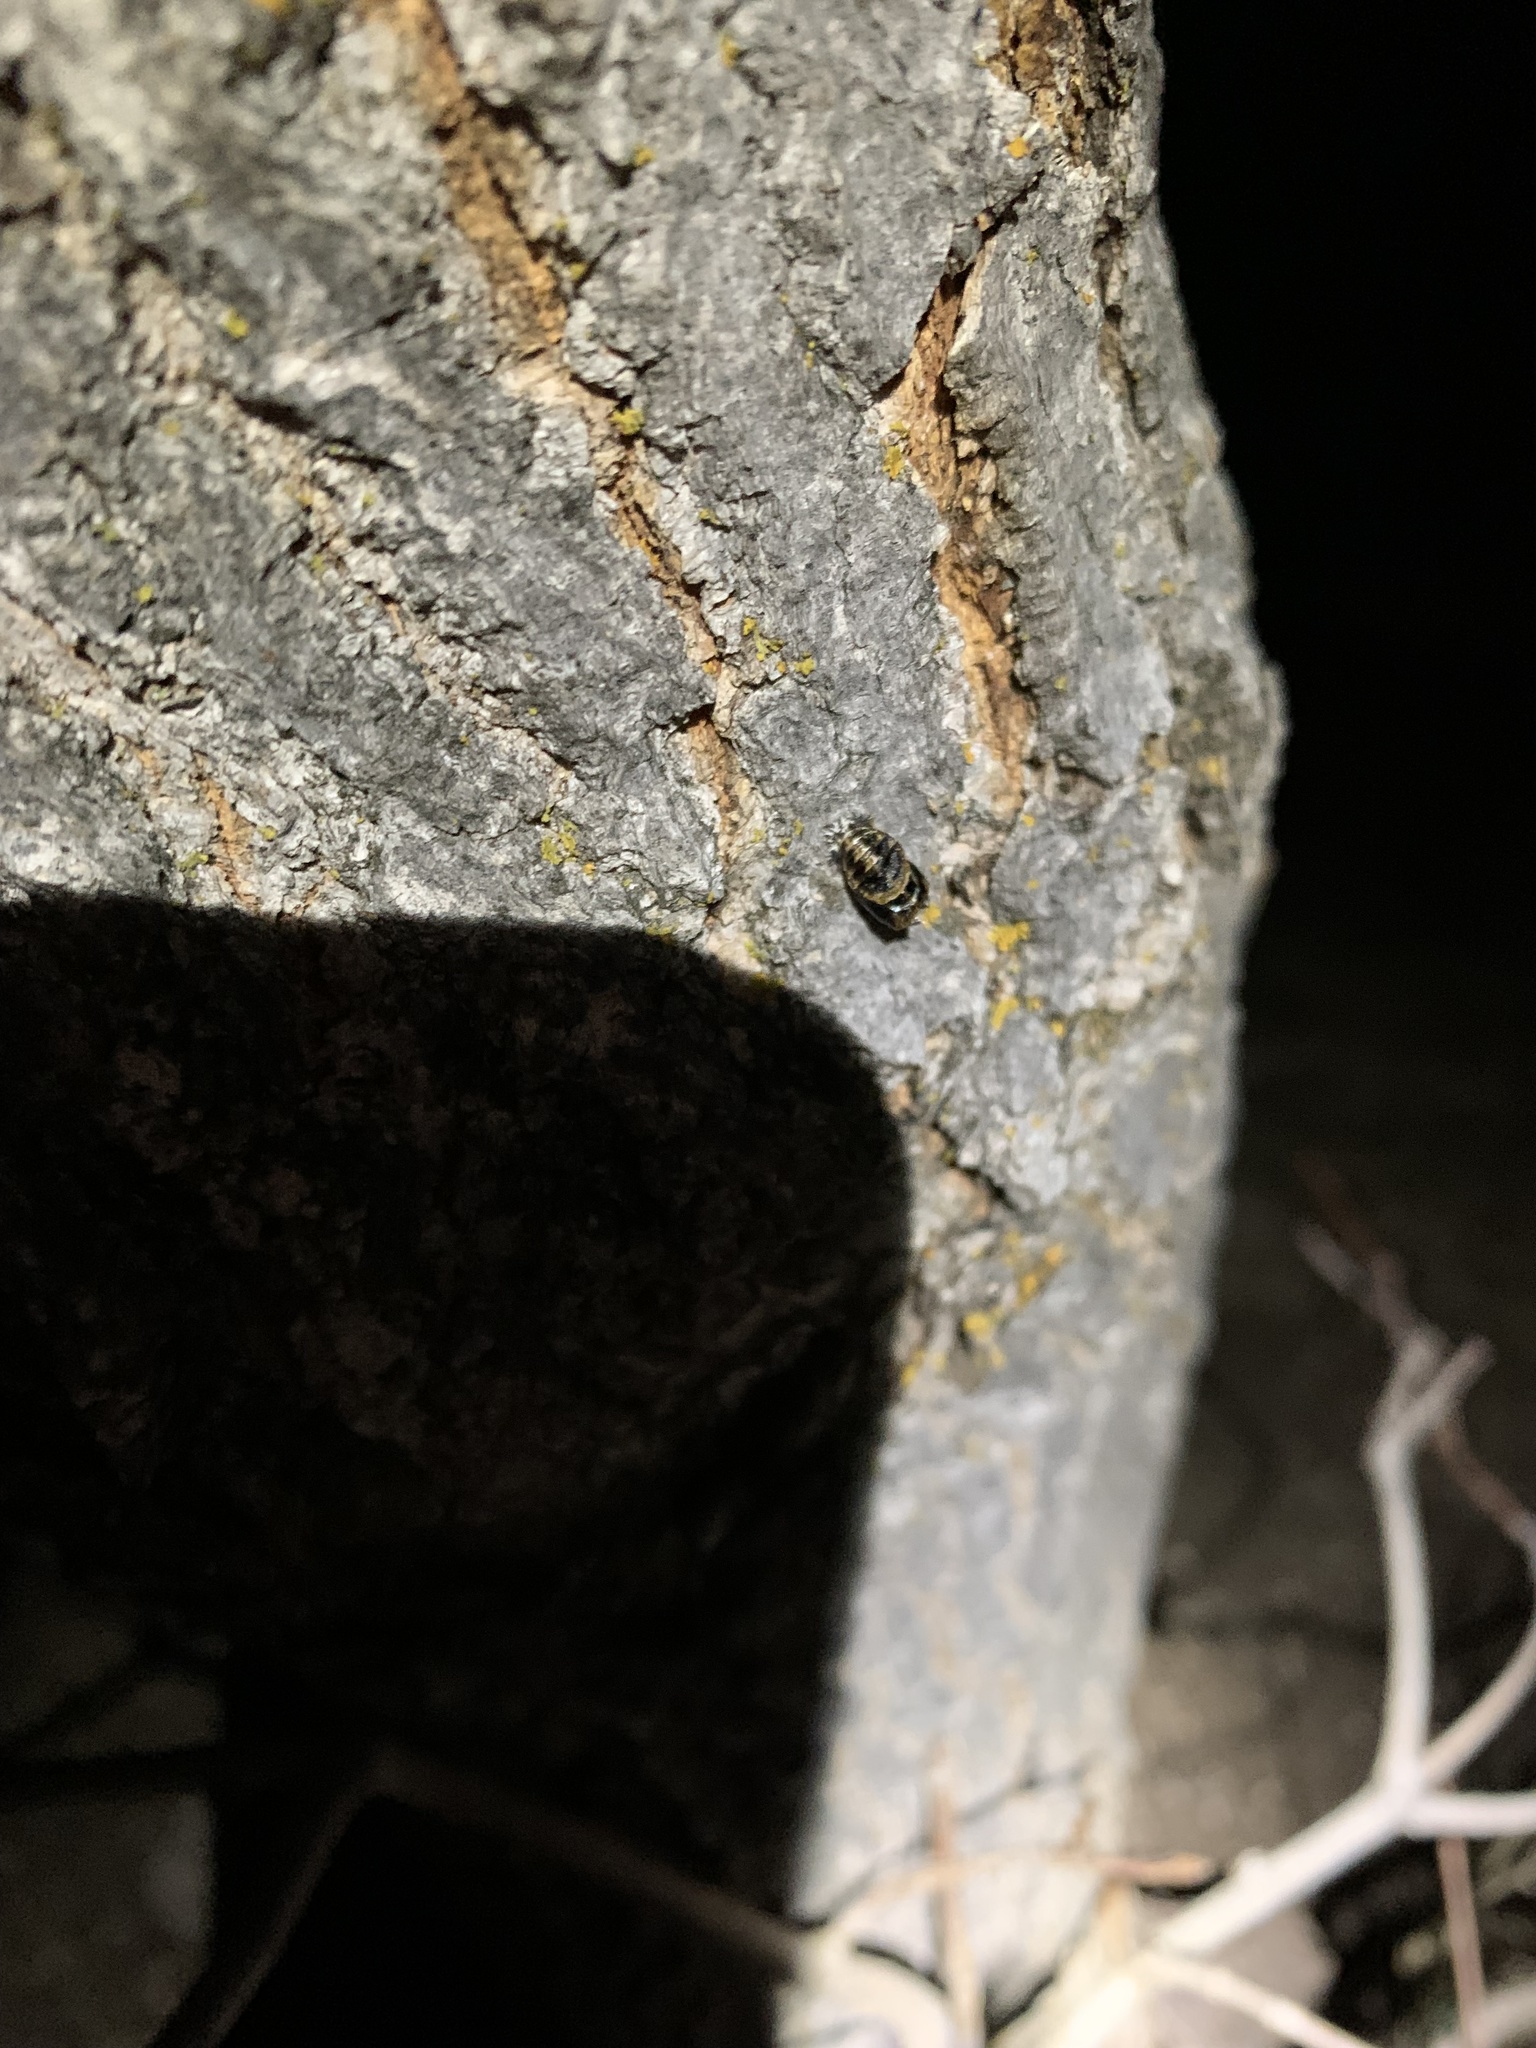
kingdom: Animalia
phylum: Arthropoda
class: Insecta
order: Coleoptera
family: Coccinellidae
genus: Harmonia
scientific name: Harmonia axyridis
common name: Harlequin ladybird
